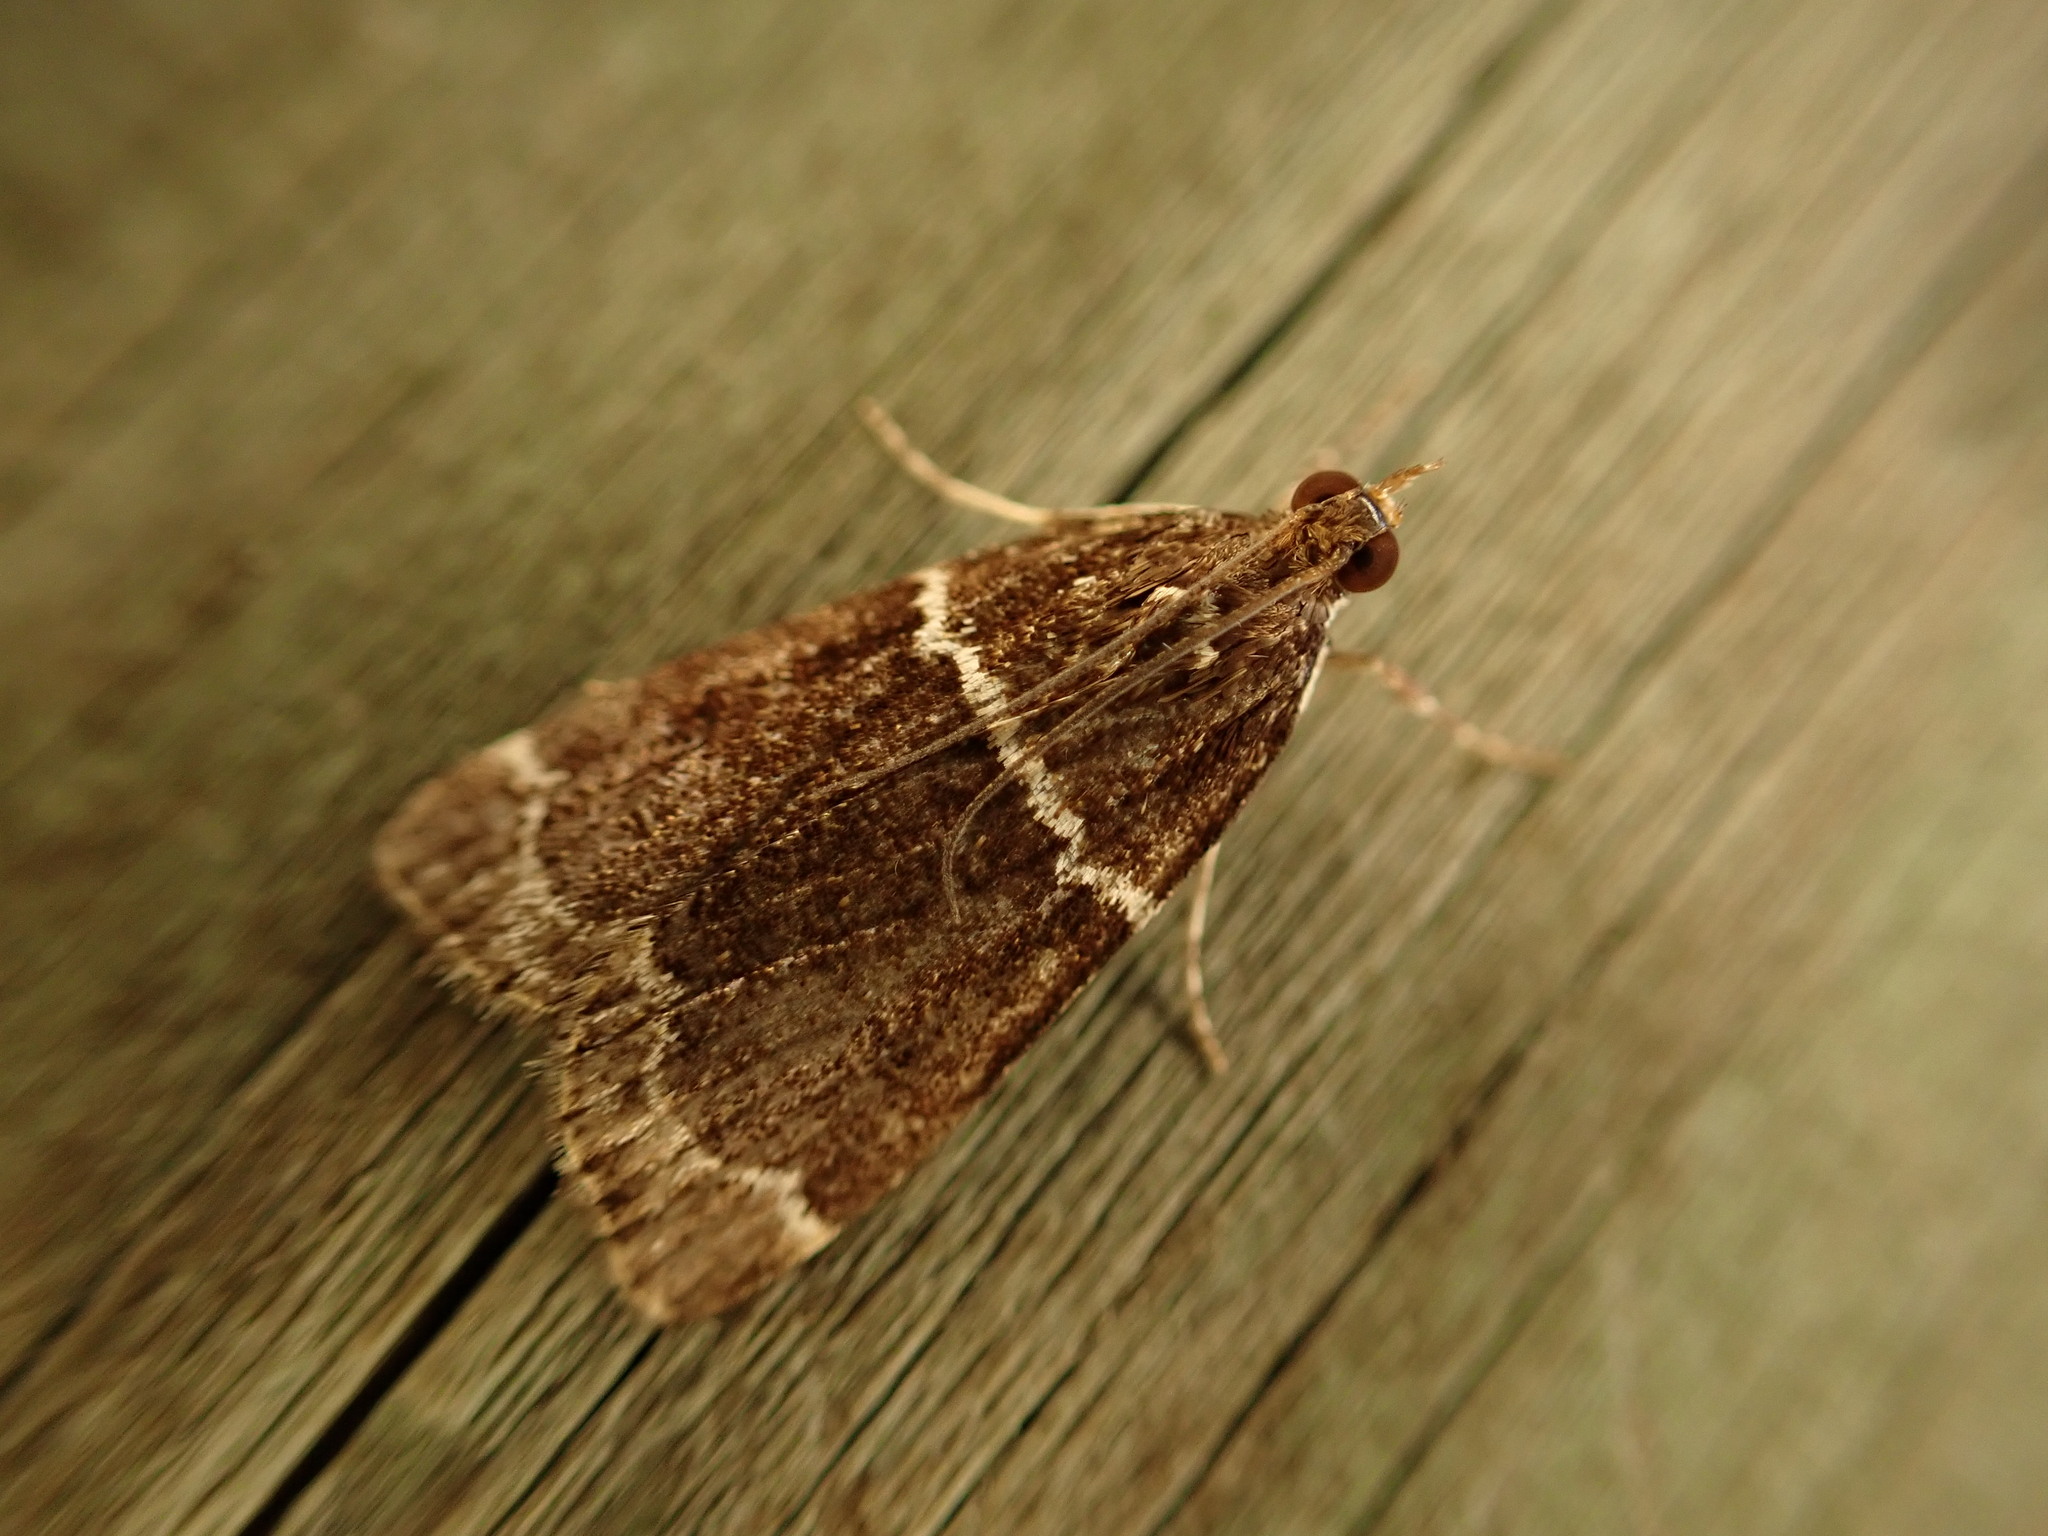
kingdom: Animalia
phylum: Arthropoda
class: Insecta
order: Lepidoptera
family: Crambidae
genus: Eudonia
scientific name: Eudonia leucogramma
